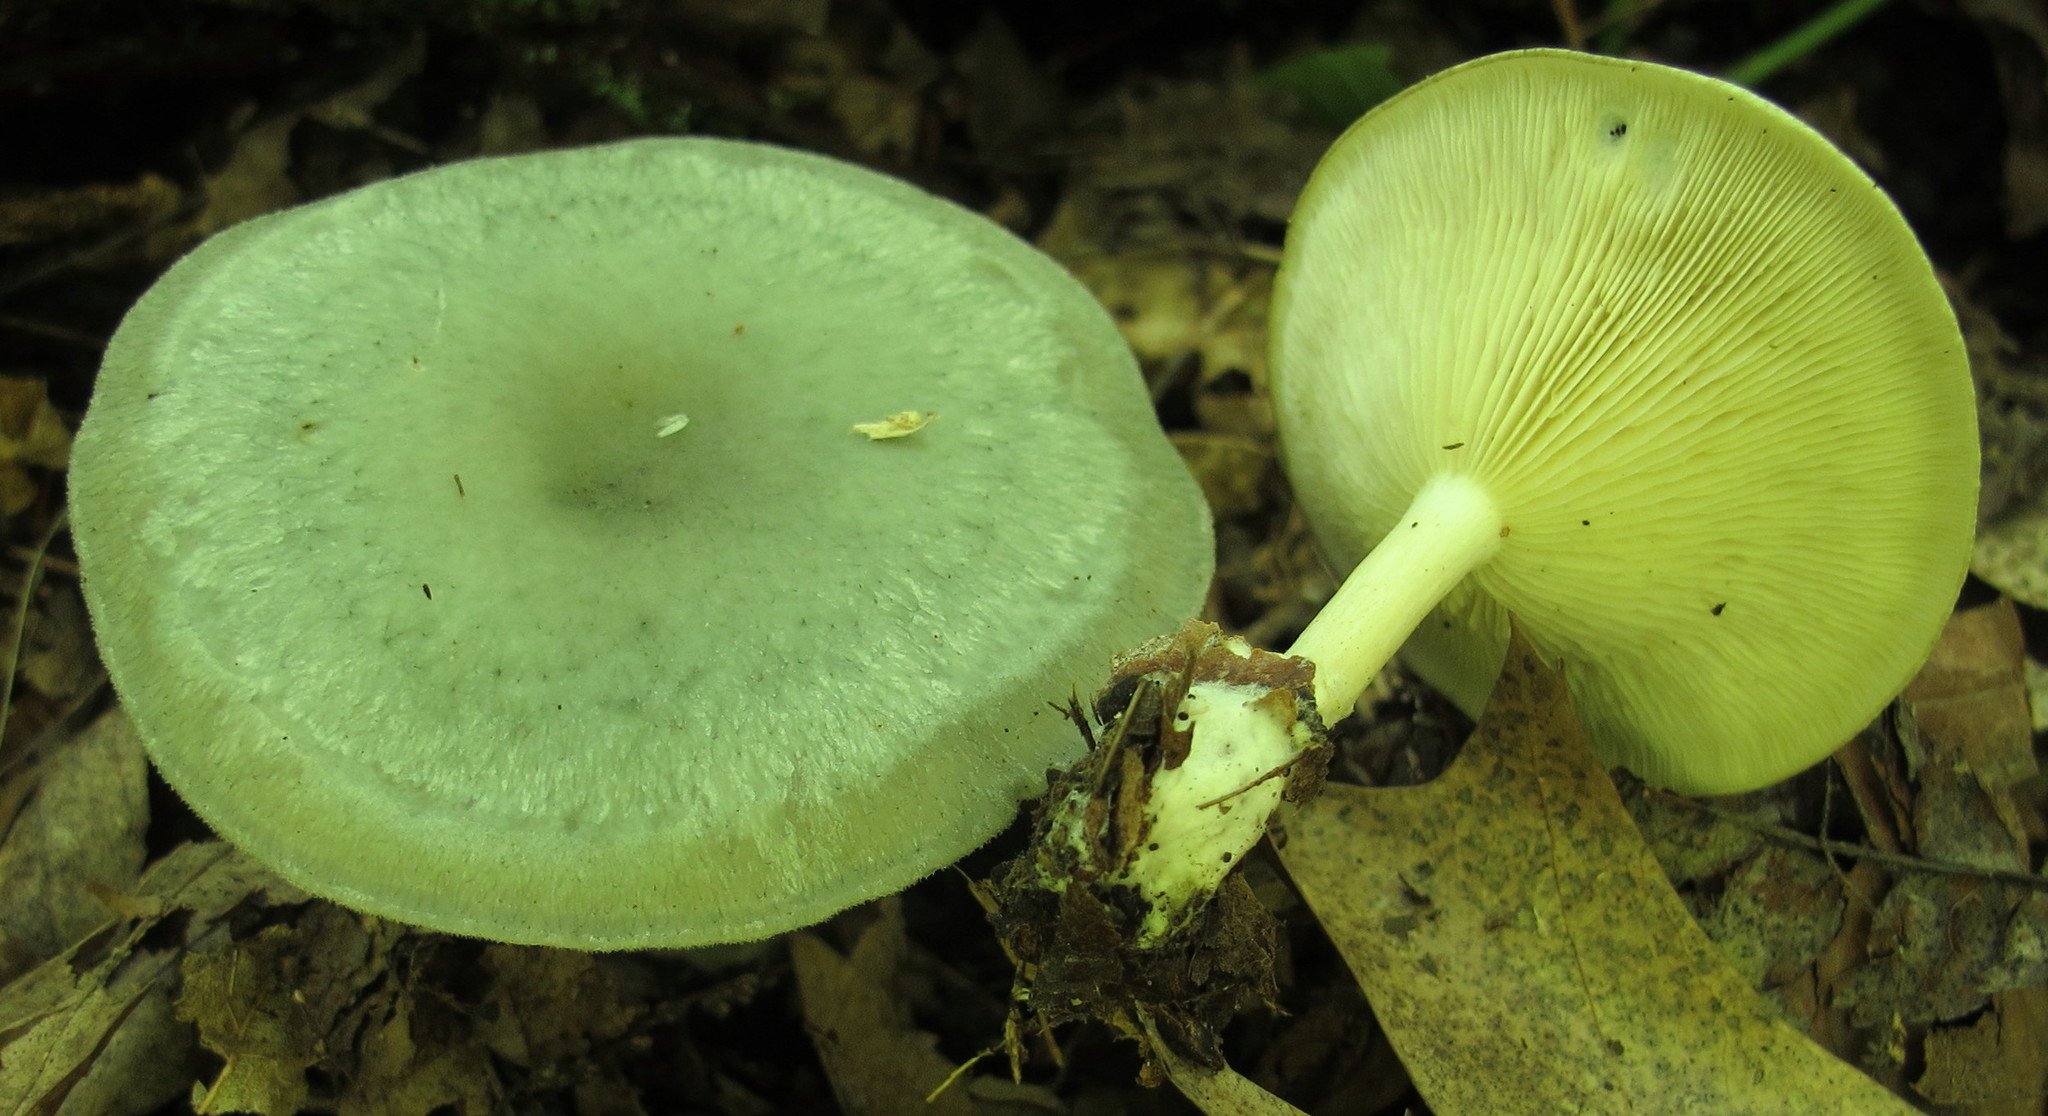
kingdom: Fungi
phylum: Basidiomycota
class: Agaricomycetes
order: Agaricales
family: Tricholomataceae
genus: Collybia
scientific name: Collybia
